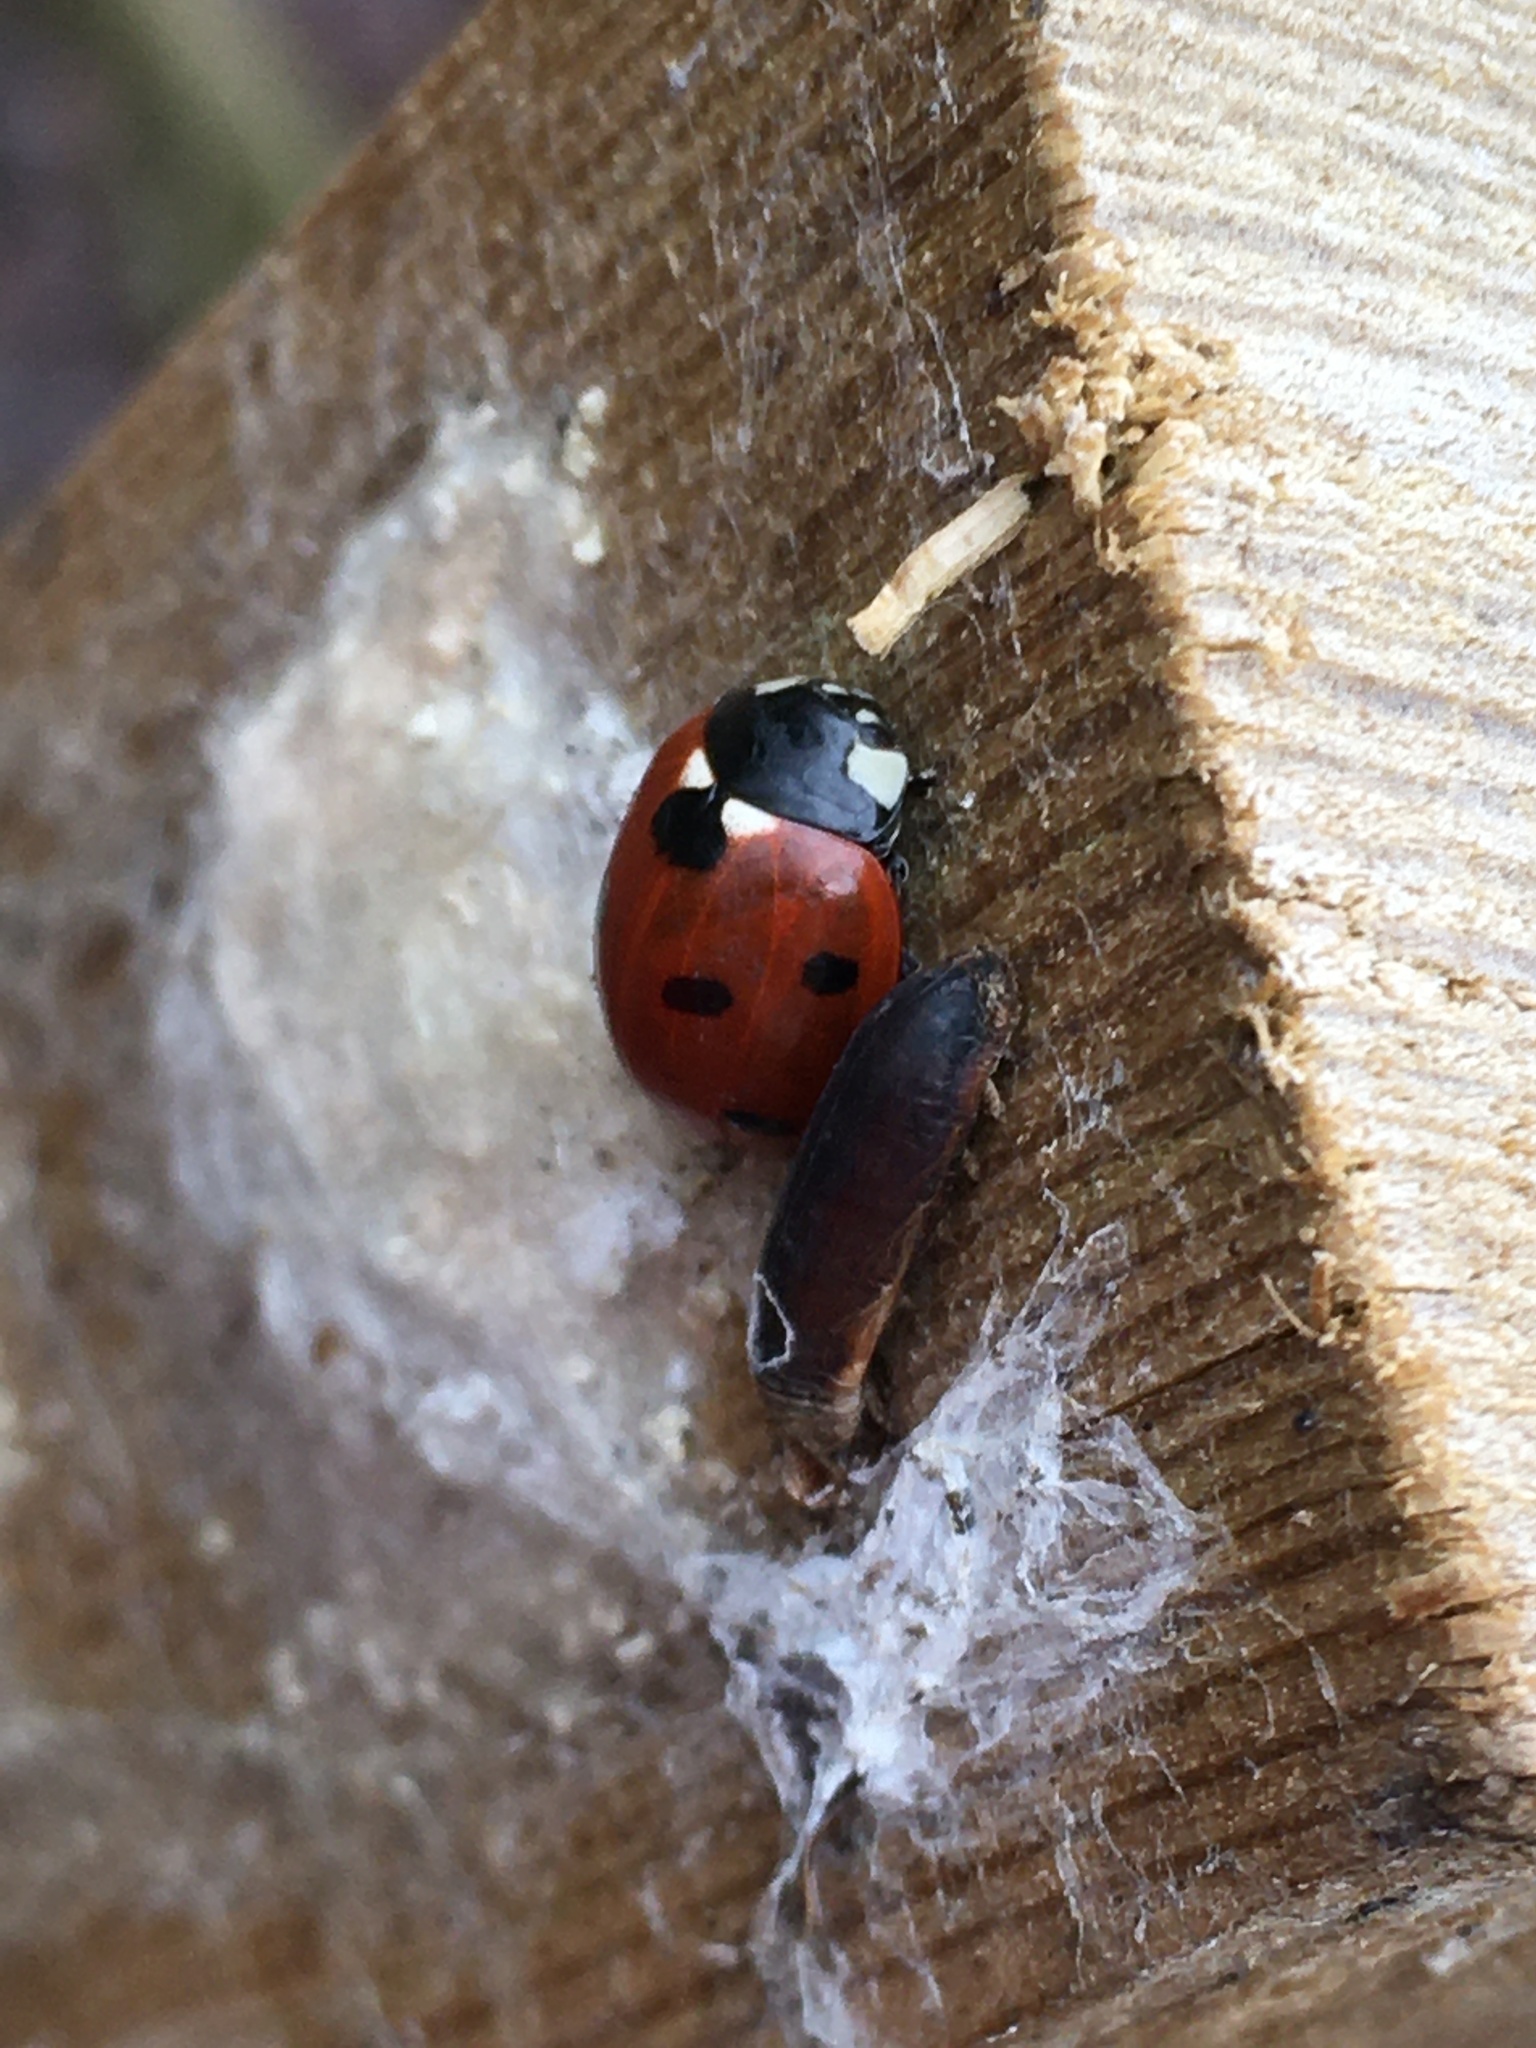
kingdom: Animalia
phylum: Arthropoda
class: Insecta
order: Coleoptera
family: Coccinellidae
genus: Coccinella
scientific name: Coccinella septempunctata
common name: Sevenspotted lady beetle
